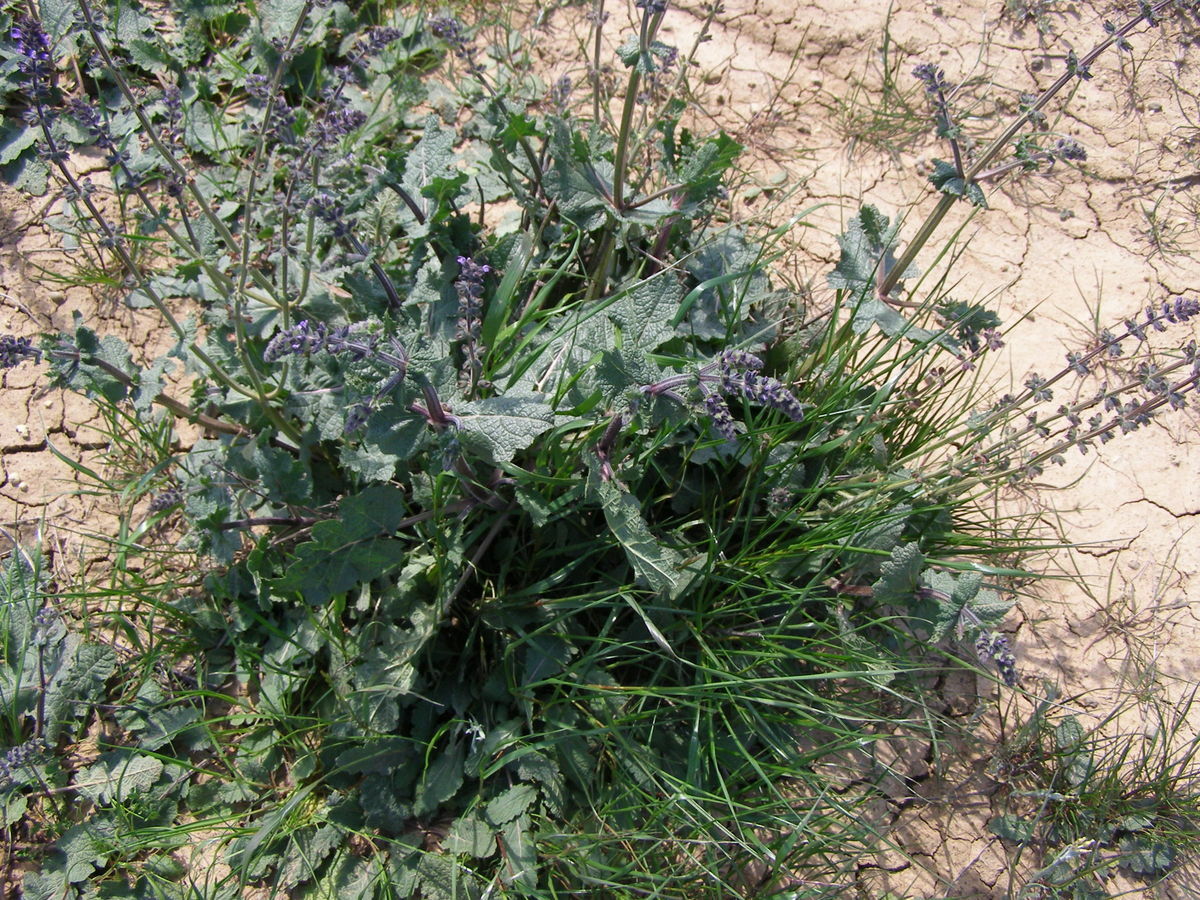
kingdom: Plantae
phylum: Tracheophyta
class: Magnoliopsida
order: Lamiales
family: Lamiaceae
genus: Salvia
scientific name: Salvia verbenaca
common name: Wild clary
